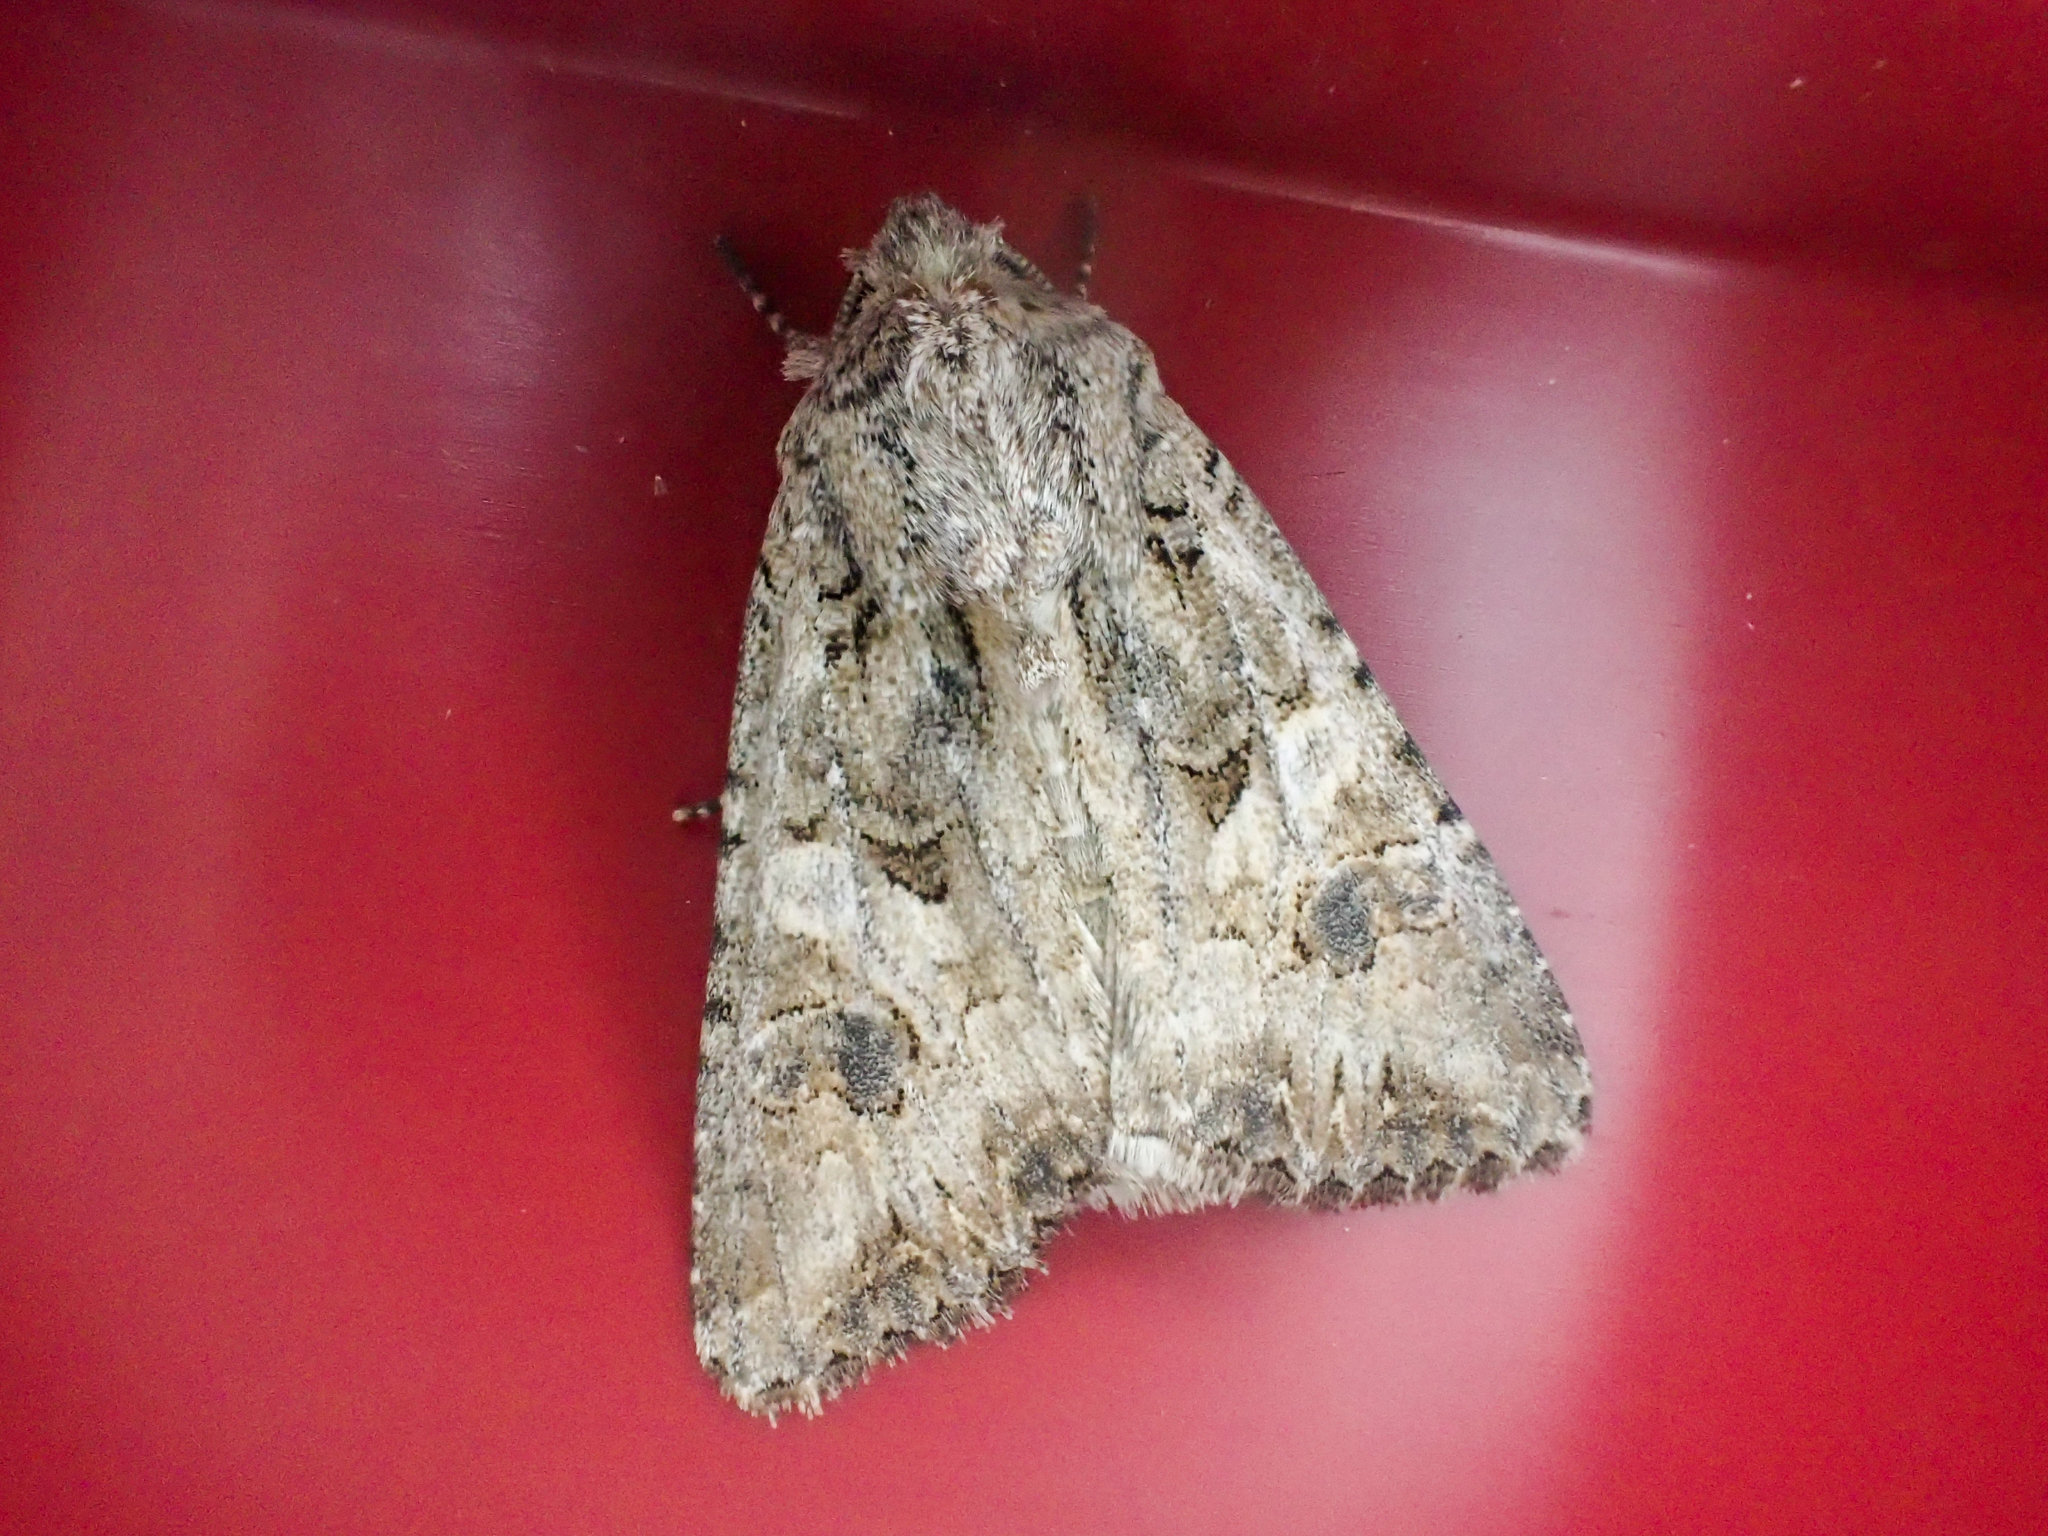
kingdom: Animalia
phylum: Arthropoda
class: Insecta
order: Lepidoptera
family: Noctuidae
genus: Anarta
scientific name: Anarta trifolii
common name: Clover cutworm moth
